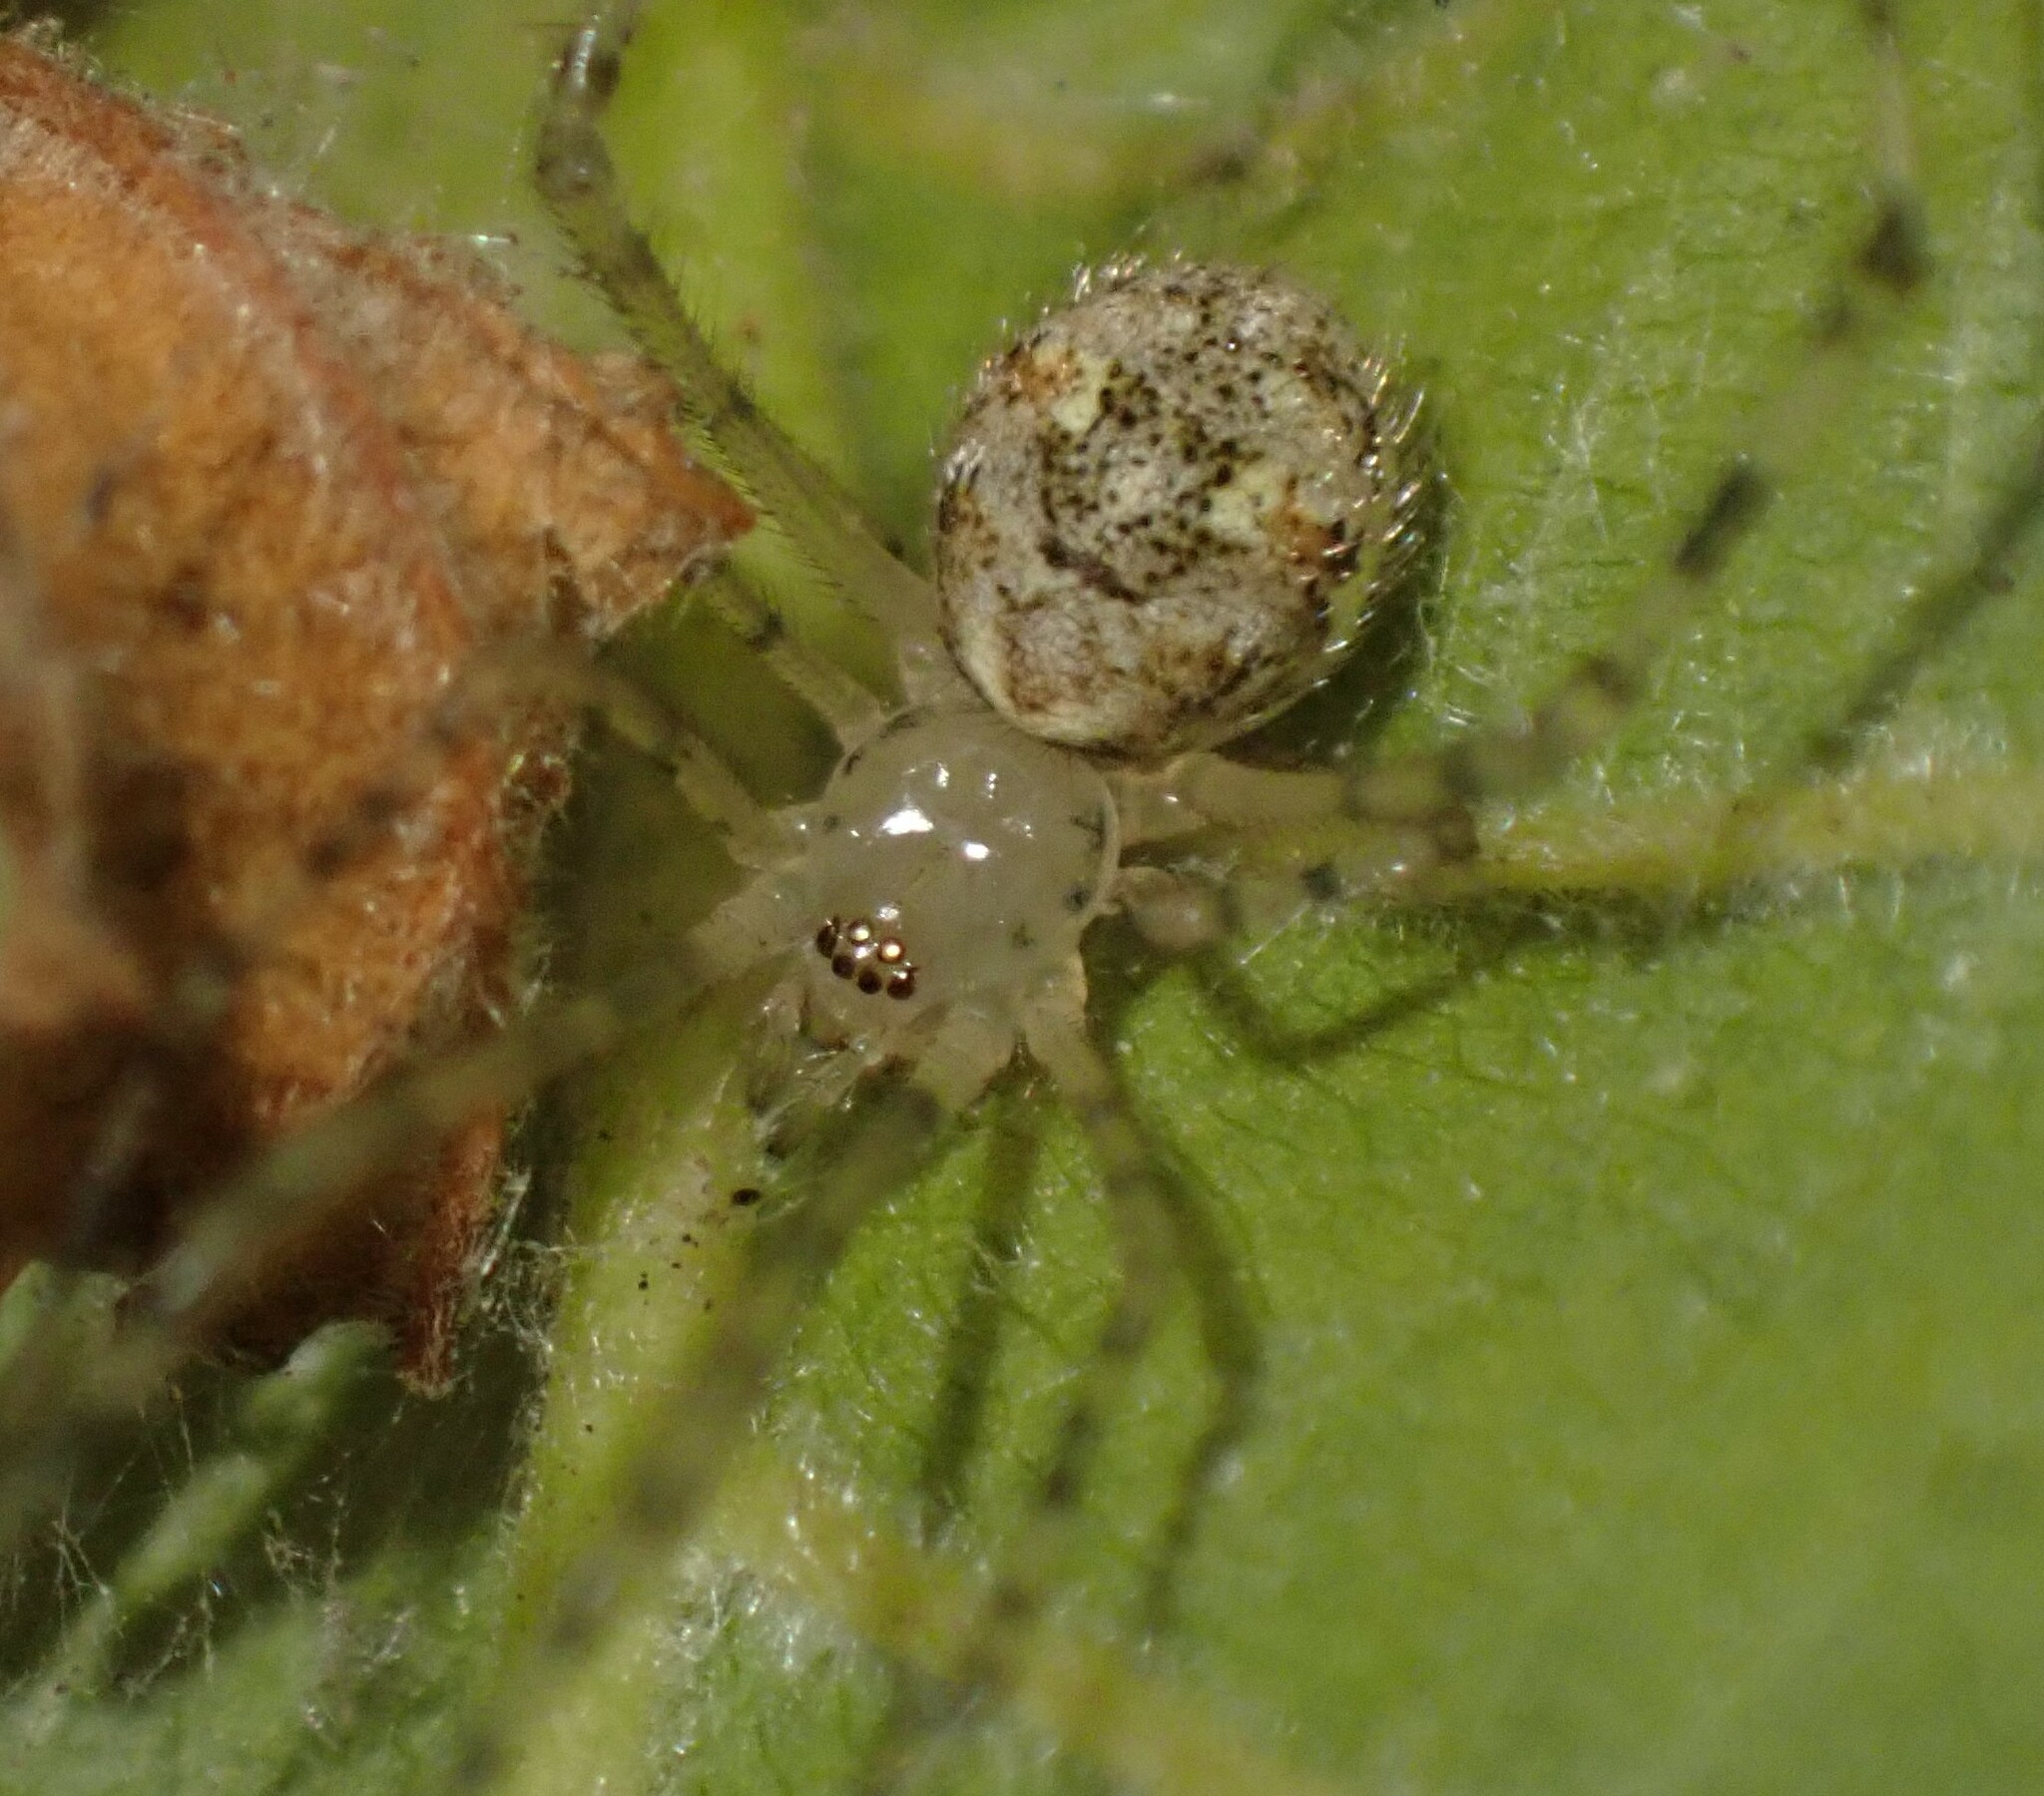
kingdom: Animalia
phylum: Arthropoda
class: Arachnida
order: Araneae
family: Theridiidae
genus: Cryptachaea
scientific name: Cryptachaea gigantipes
